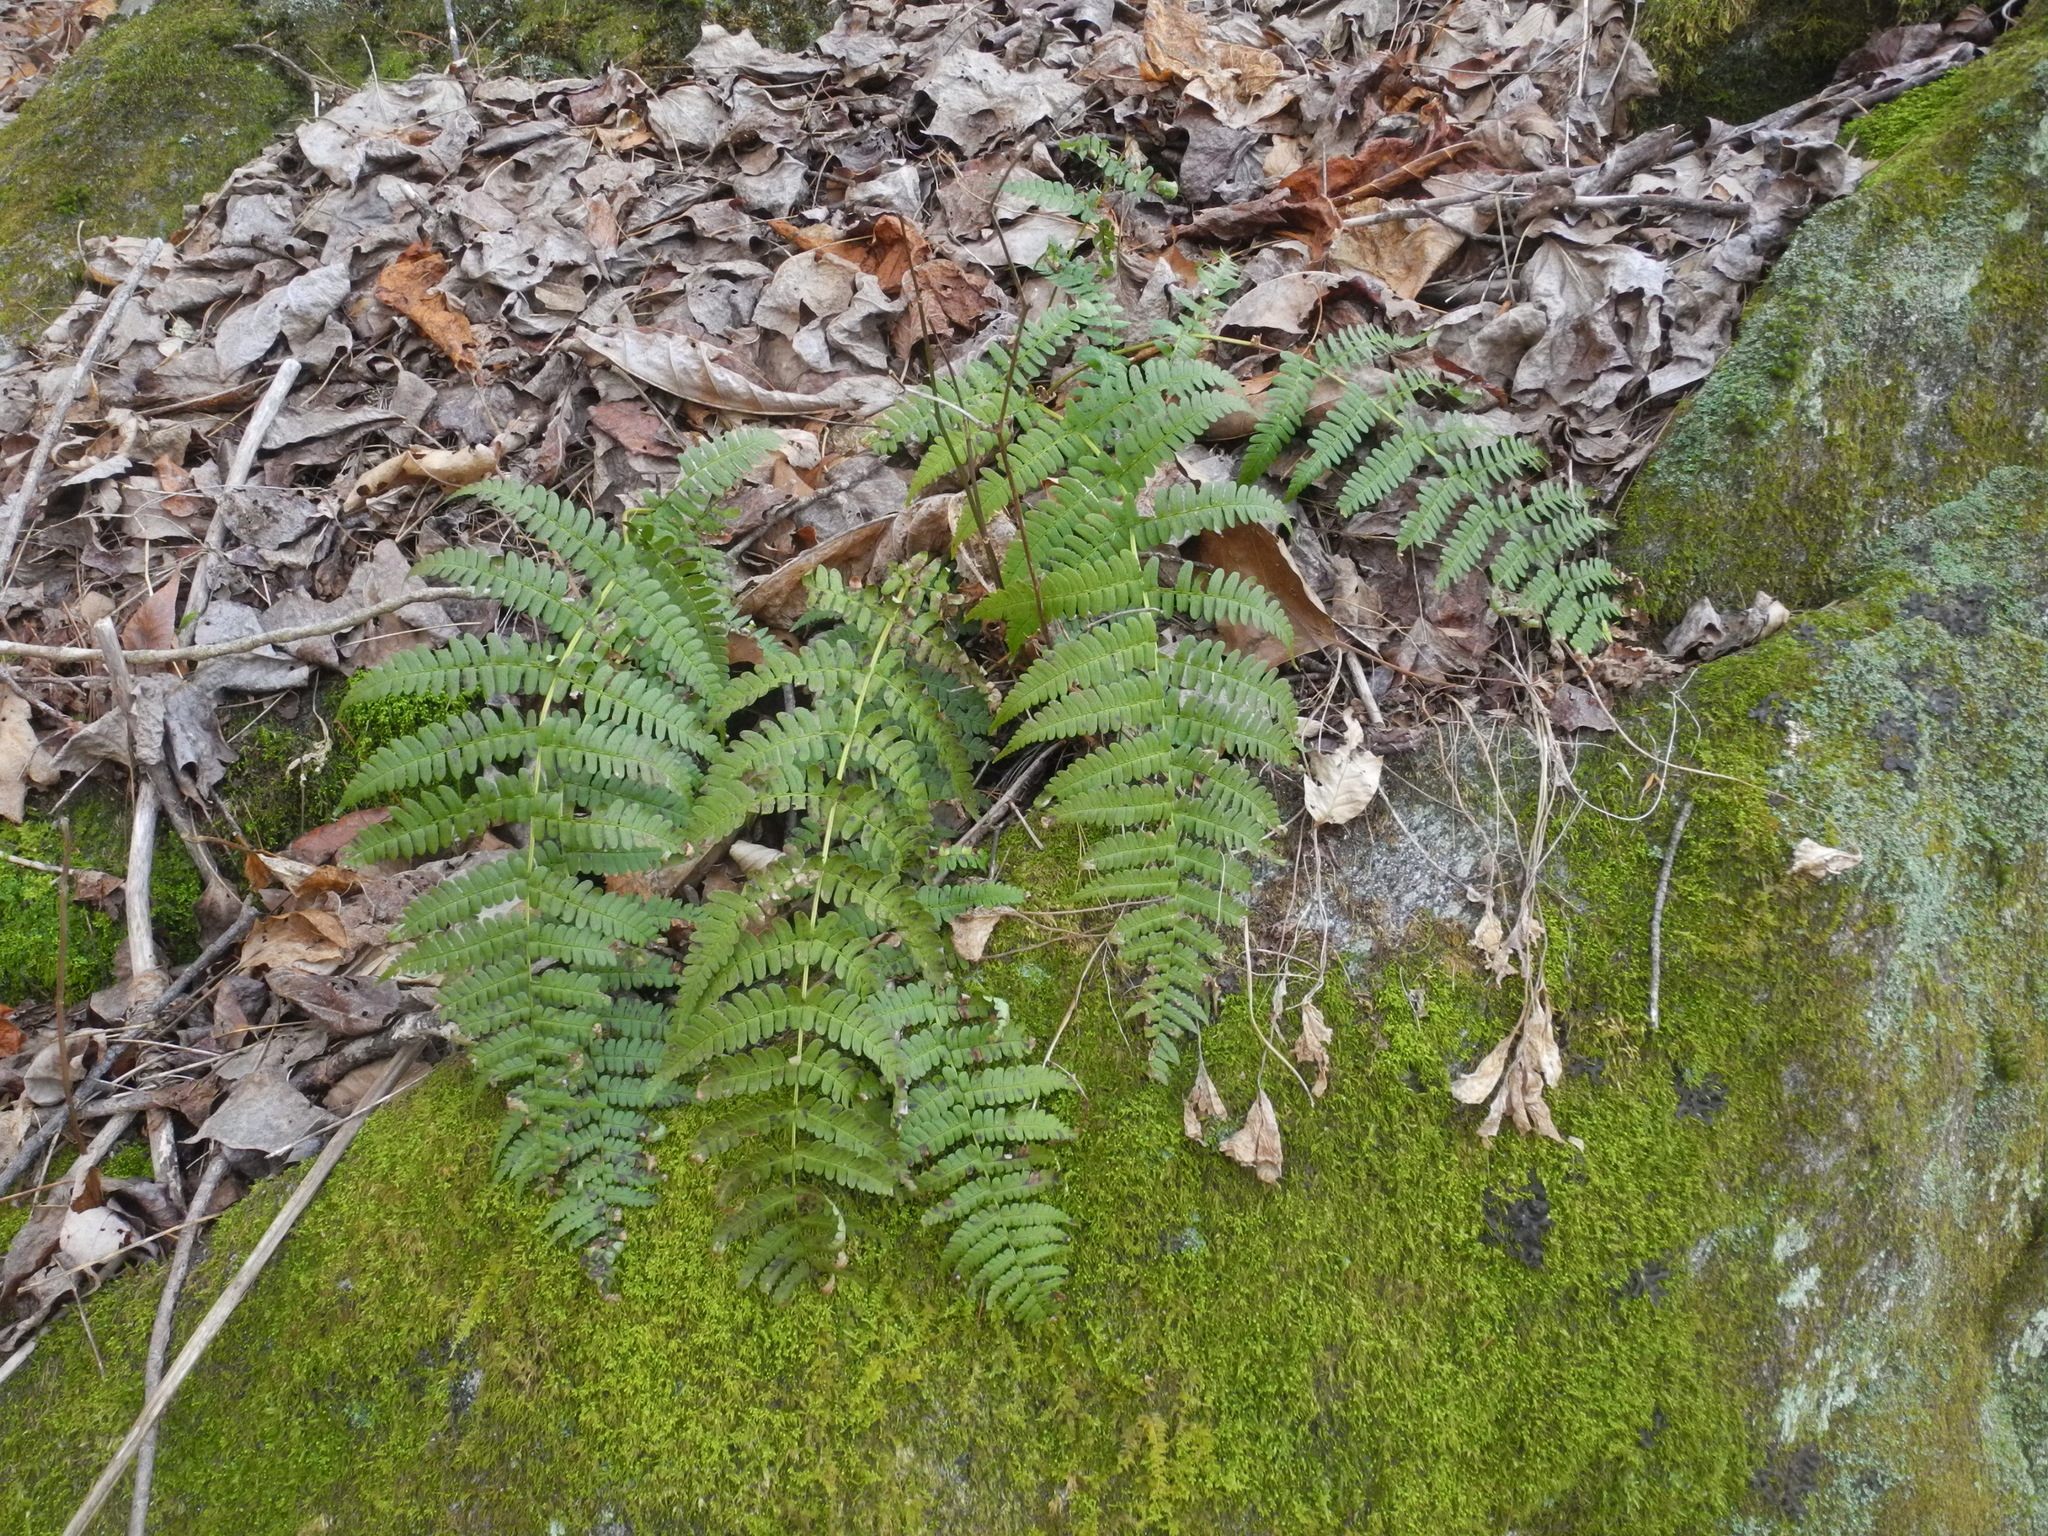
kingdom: Plantae
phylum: Tracheophyta
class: Polypodiopsida
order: Polypodiales
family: Dryopteridaceae
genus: Dryopteris
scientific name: Dryopteris marginalis
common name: Marginal wood fern
